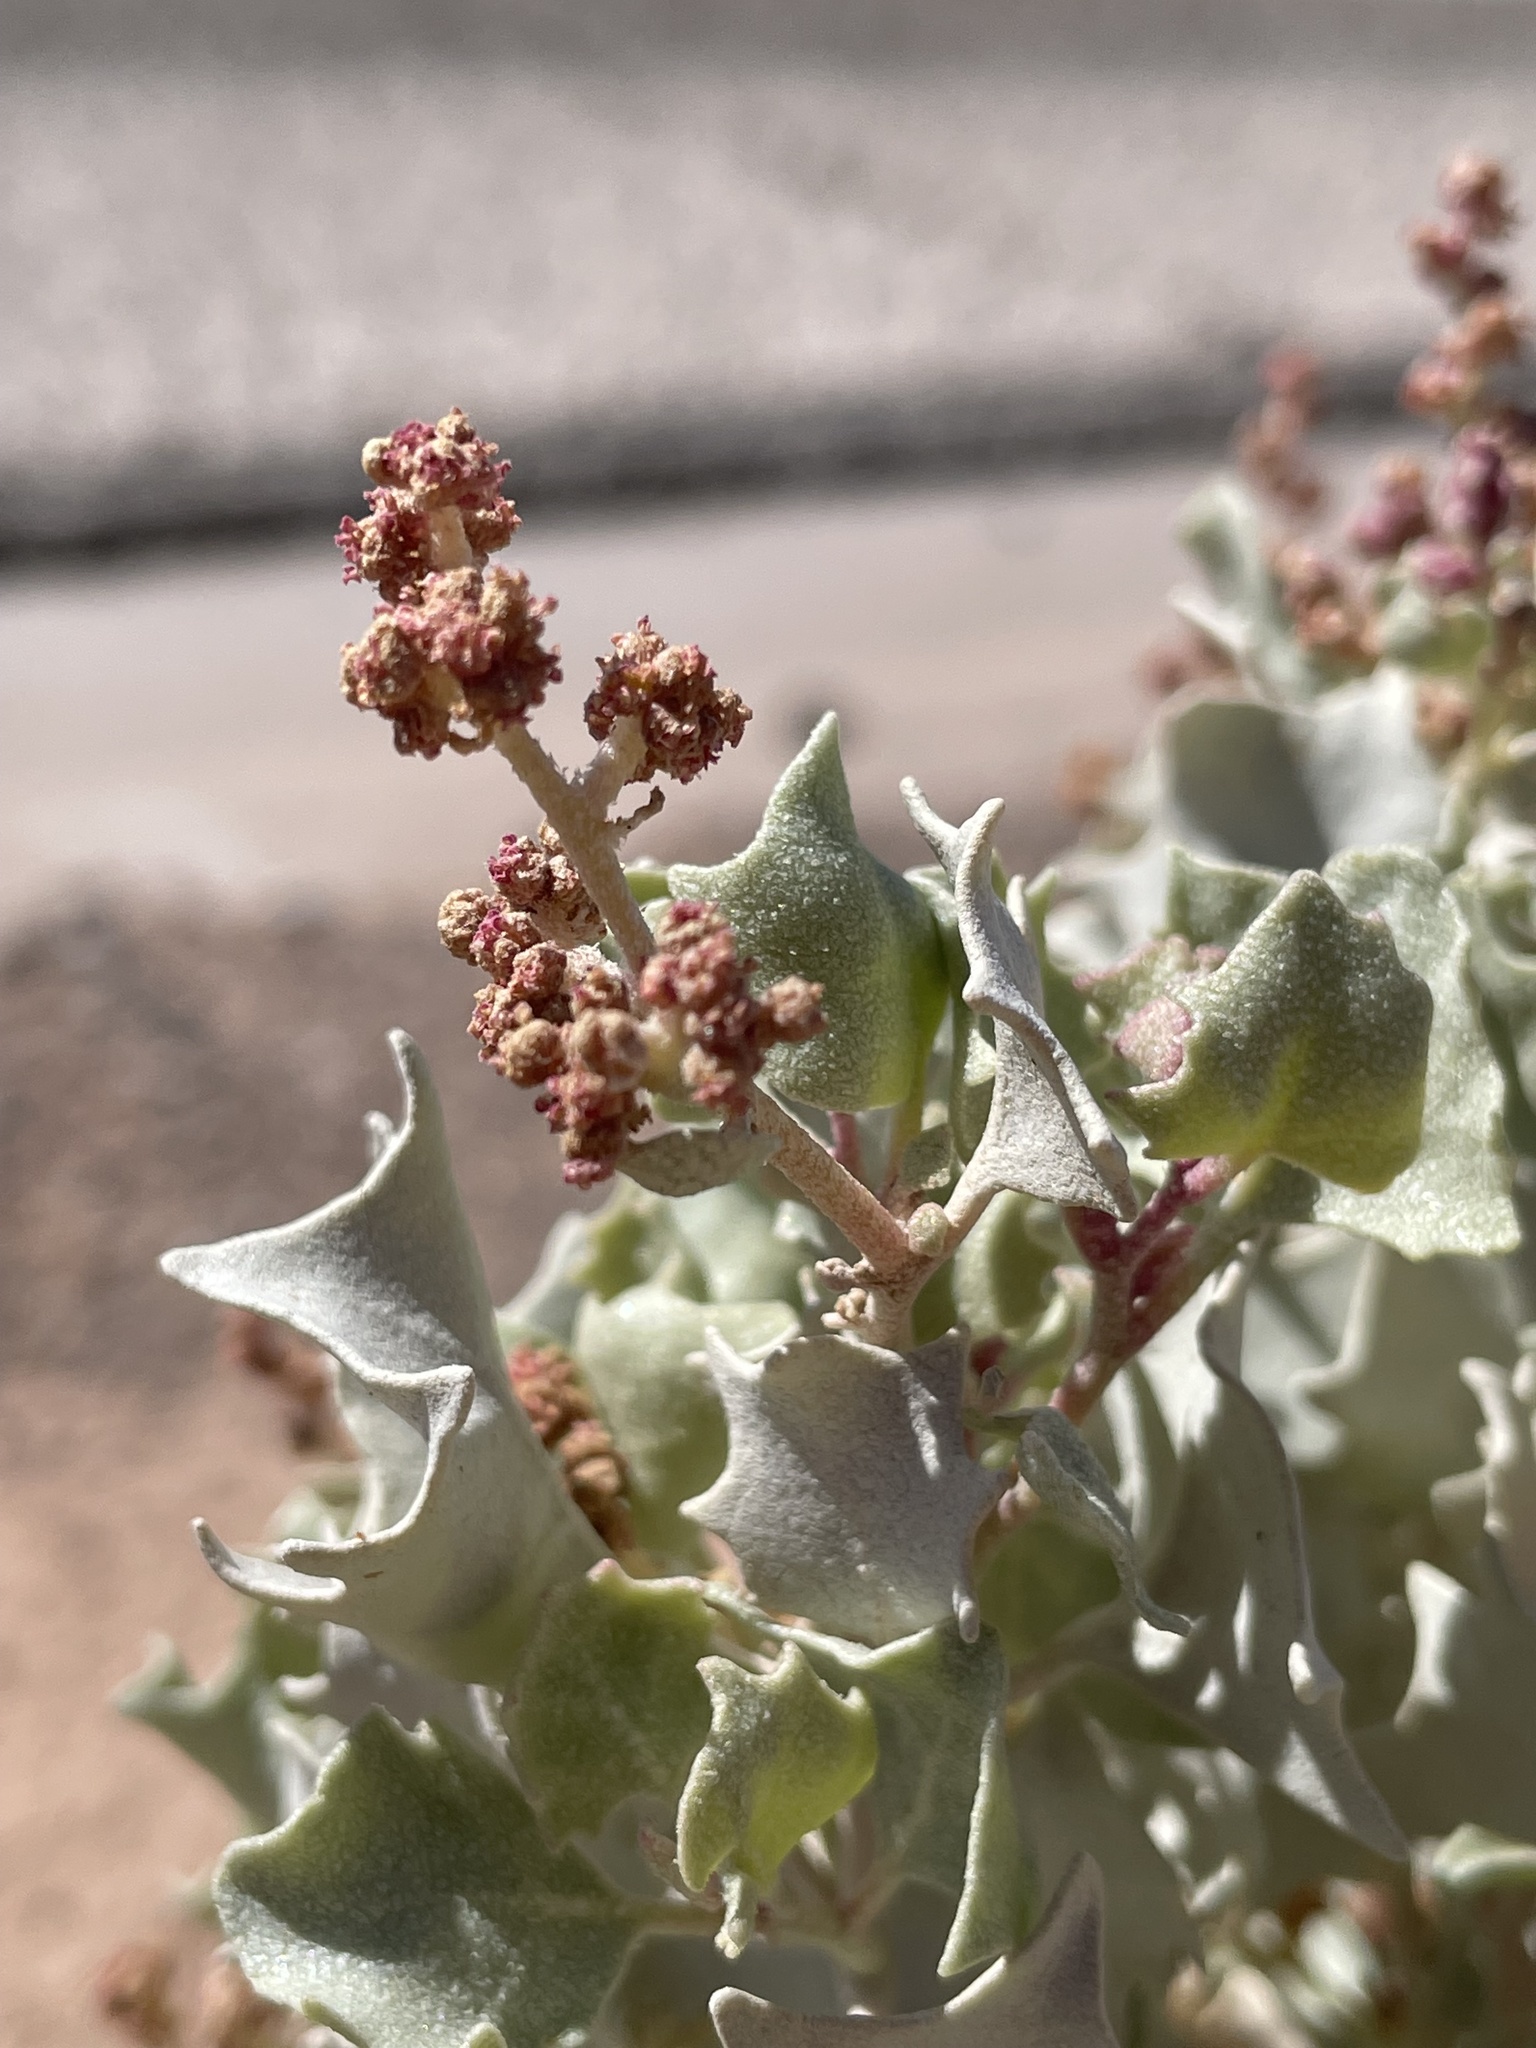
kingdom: Plantae
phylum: Tracheophyta
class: Magnoliopsida
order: Caryophyllales
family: Amaranthaceae
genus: Atriplex
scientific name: Atriplex hymenelytra
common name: Desert-holly
